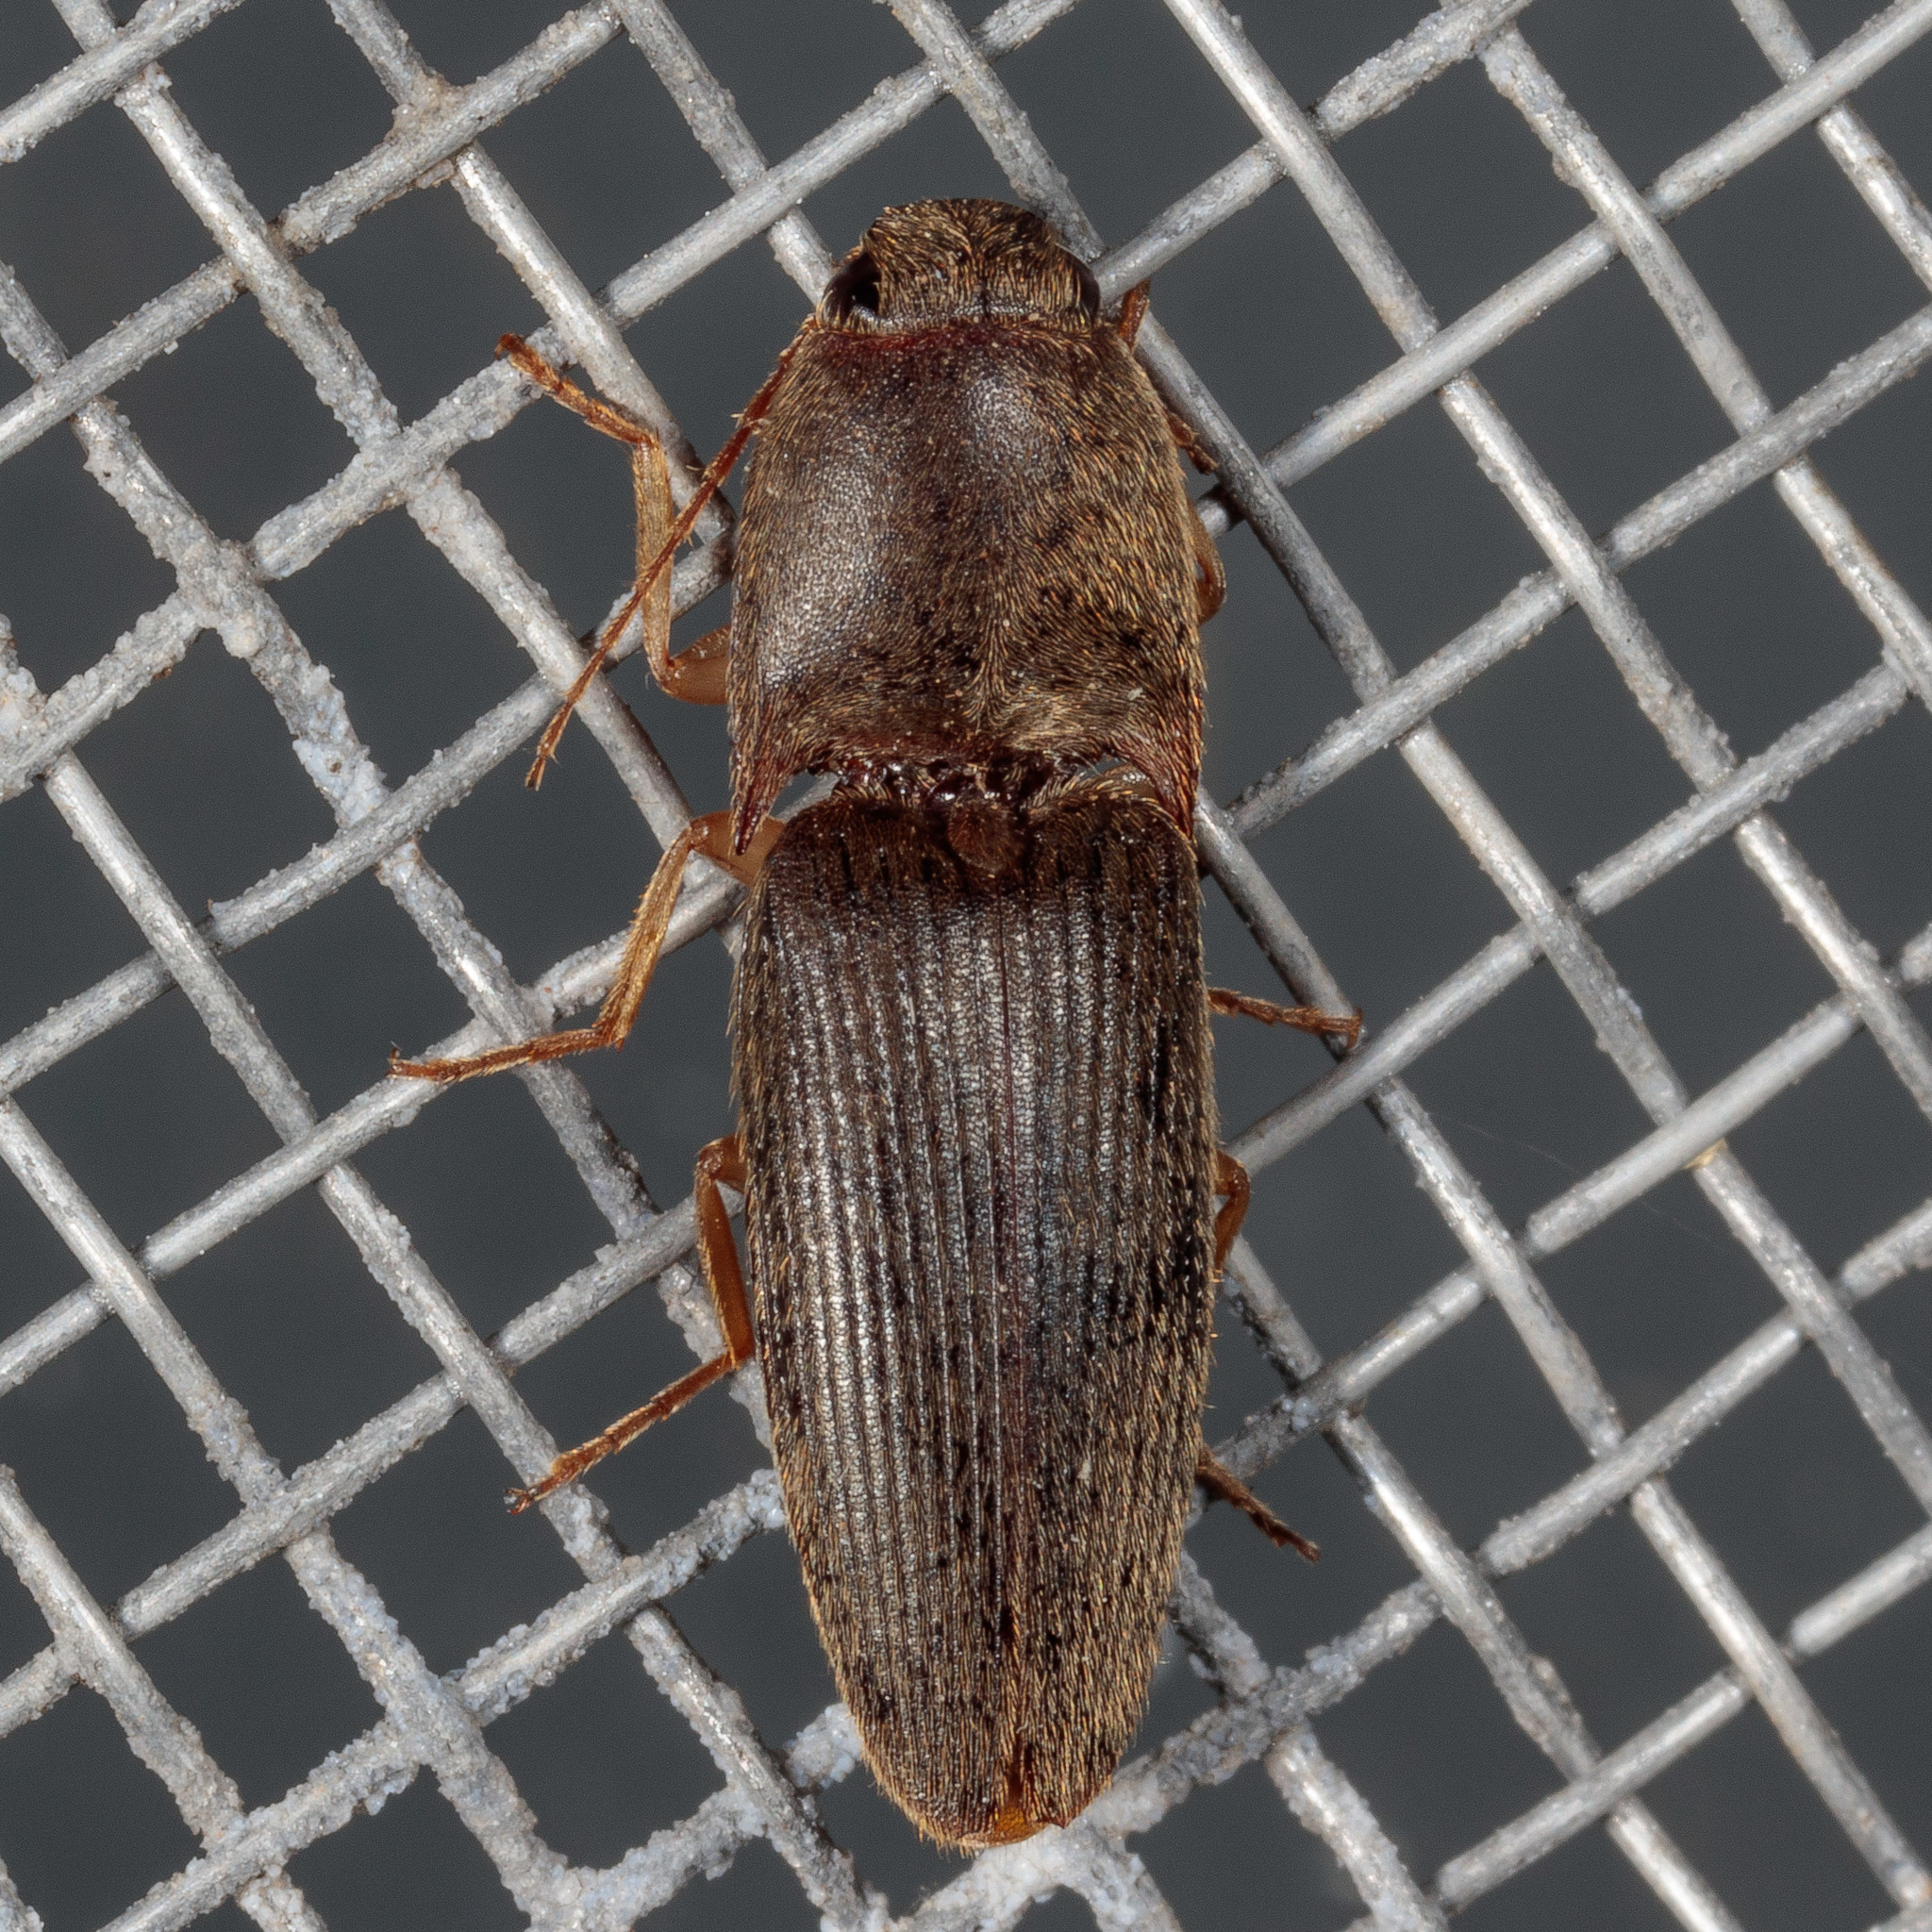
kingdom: Animalia
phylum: Arthropoda
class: Insecta
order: Coleoptera
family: Elateridae
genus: Conoderus
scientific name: Conoderus exsul
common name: Click beetle
